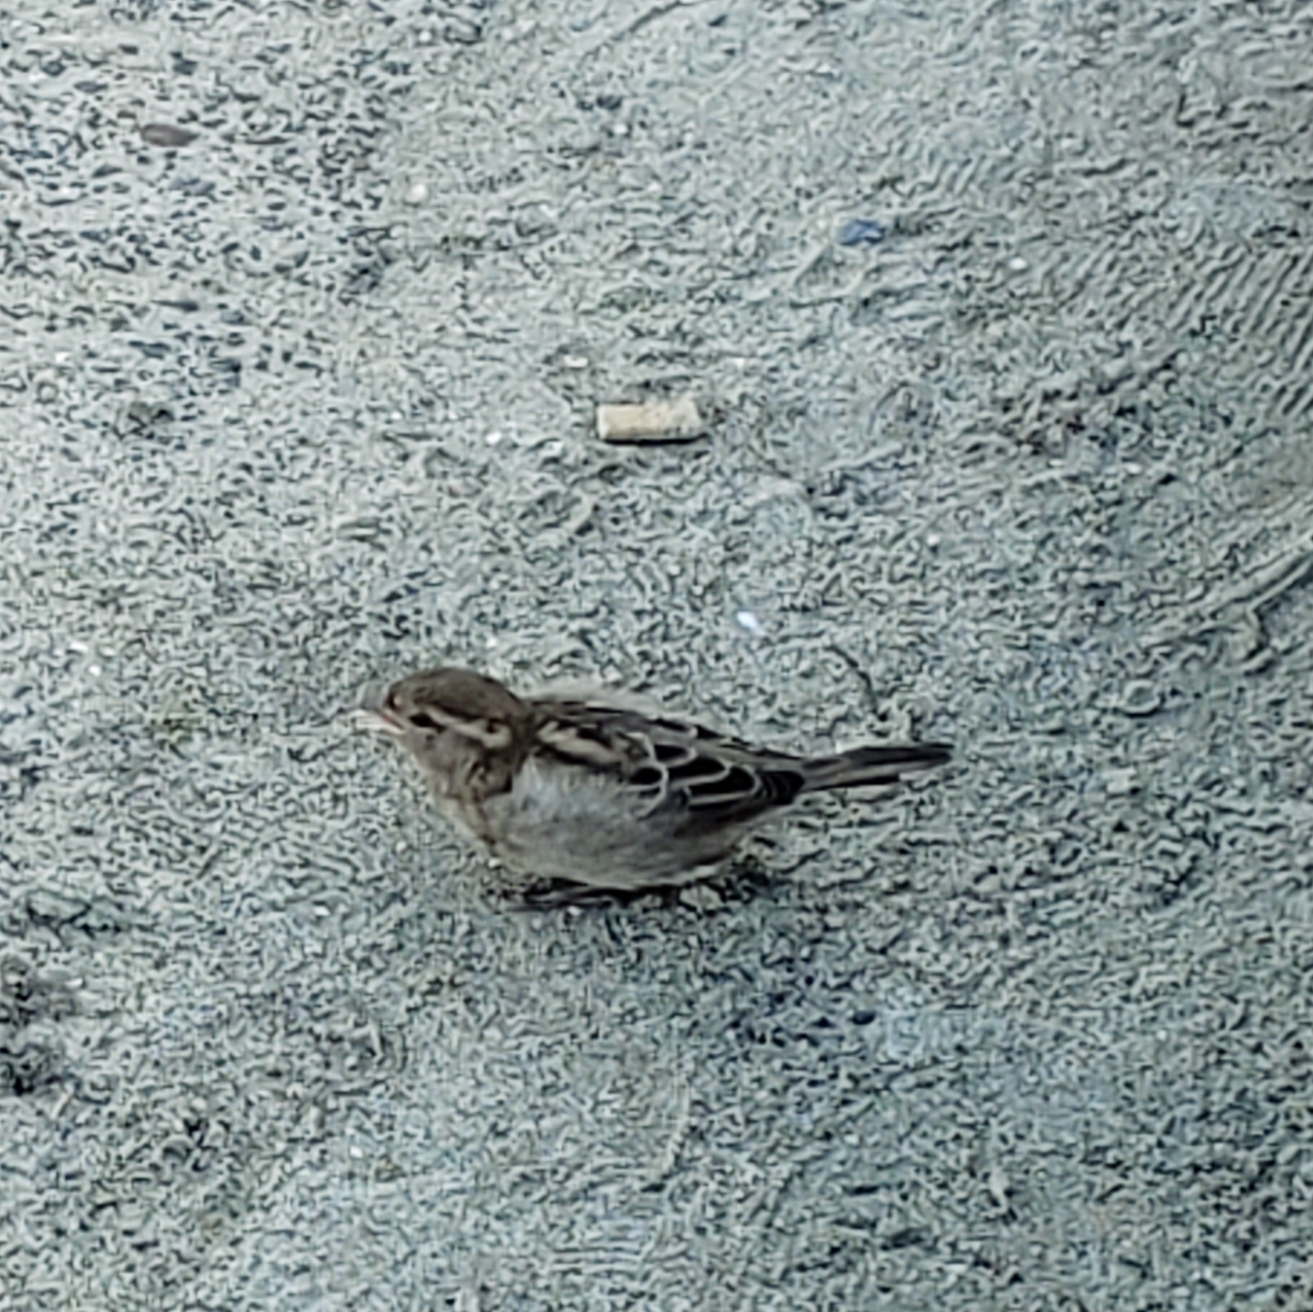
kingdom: Animalia
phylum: Chordata
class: Aves
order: Passeriformes
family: Passeridae
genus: Passer
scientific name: Passer domesticus
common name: House sparrow
